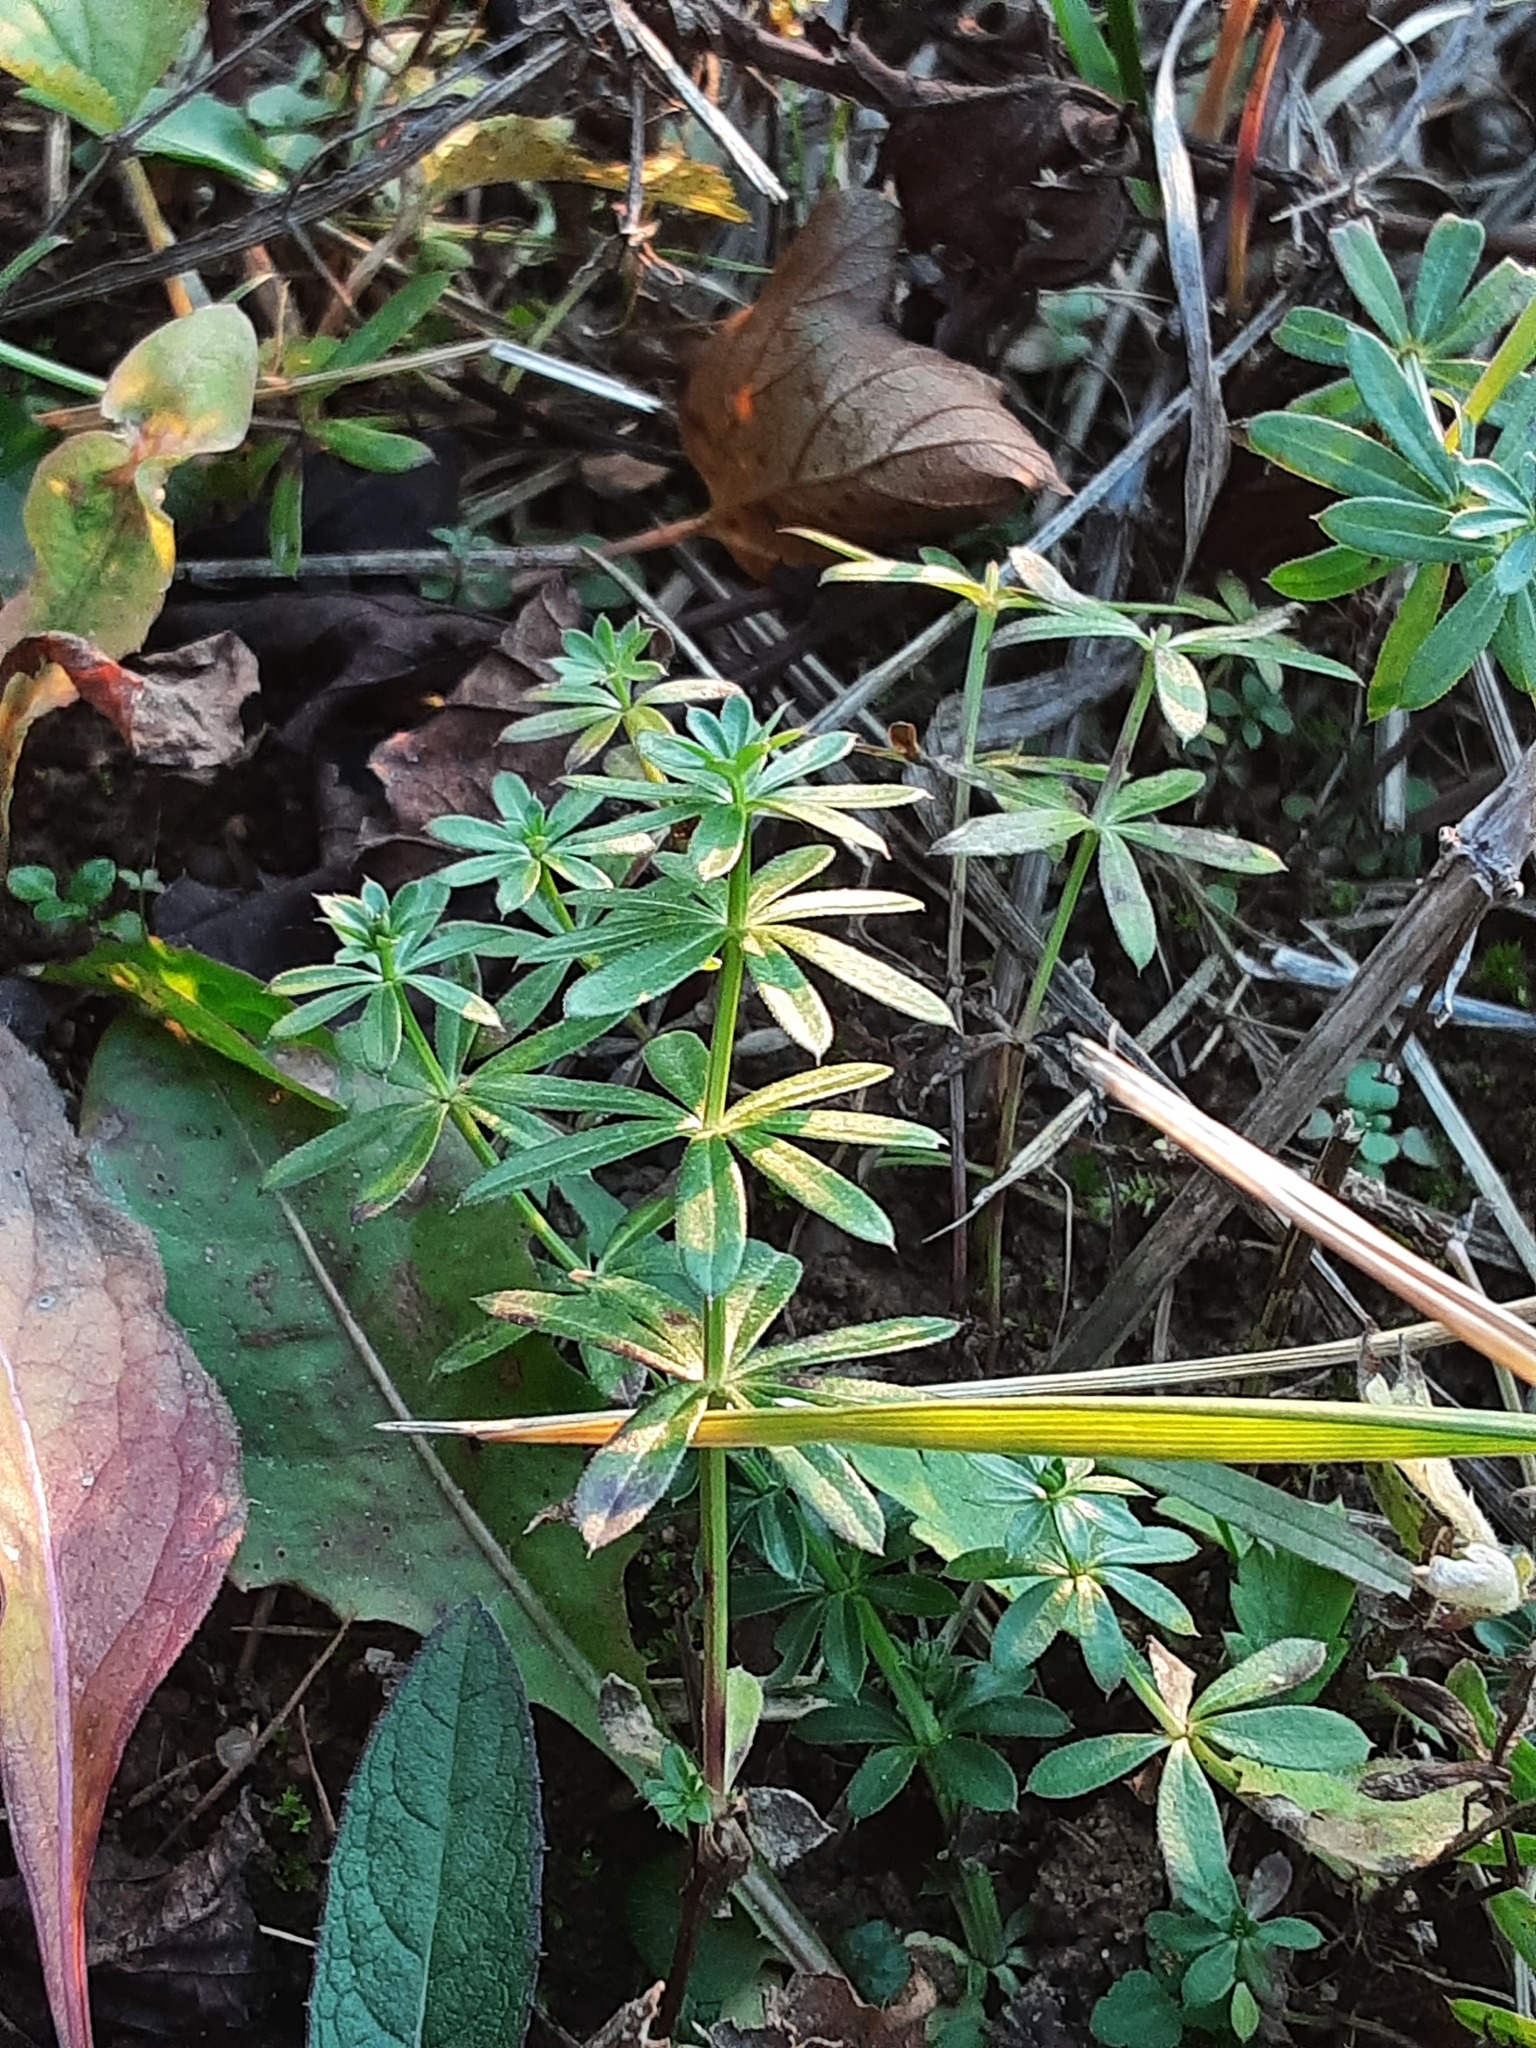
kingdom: Plantae
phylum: Tracheophyta
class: Magnoliopsida
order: Gentianales
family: Rubiaceae
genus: Galium
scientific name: Galium mollugo
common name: Hedge bedstraw
